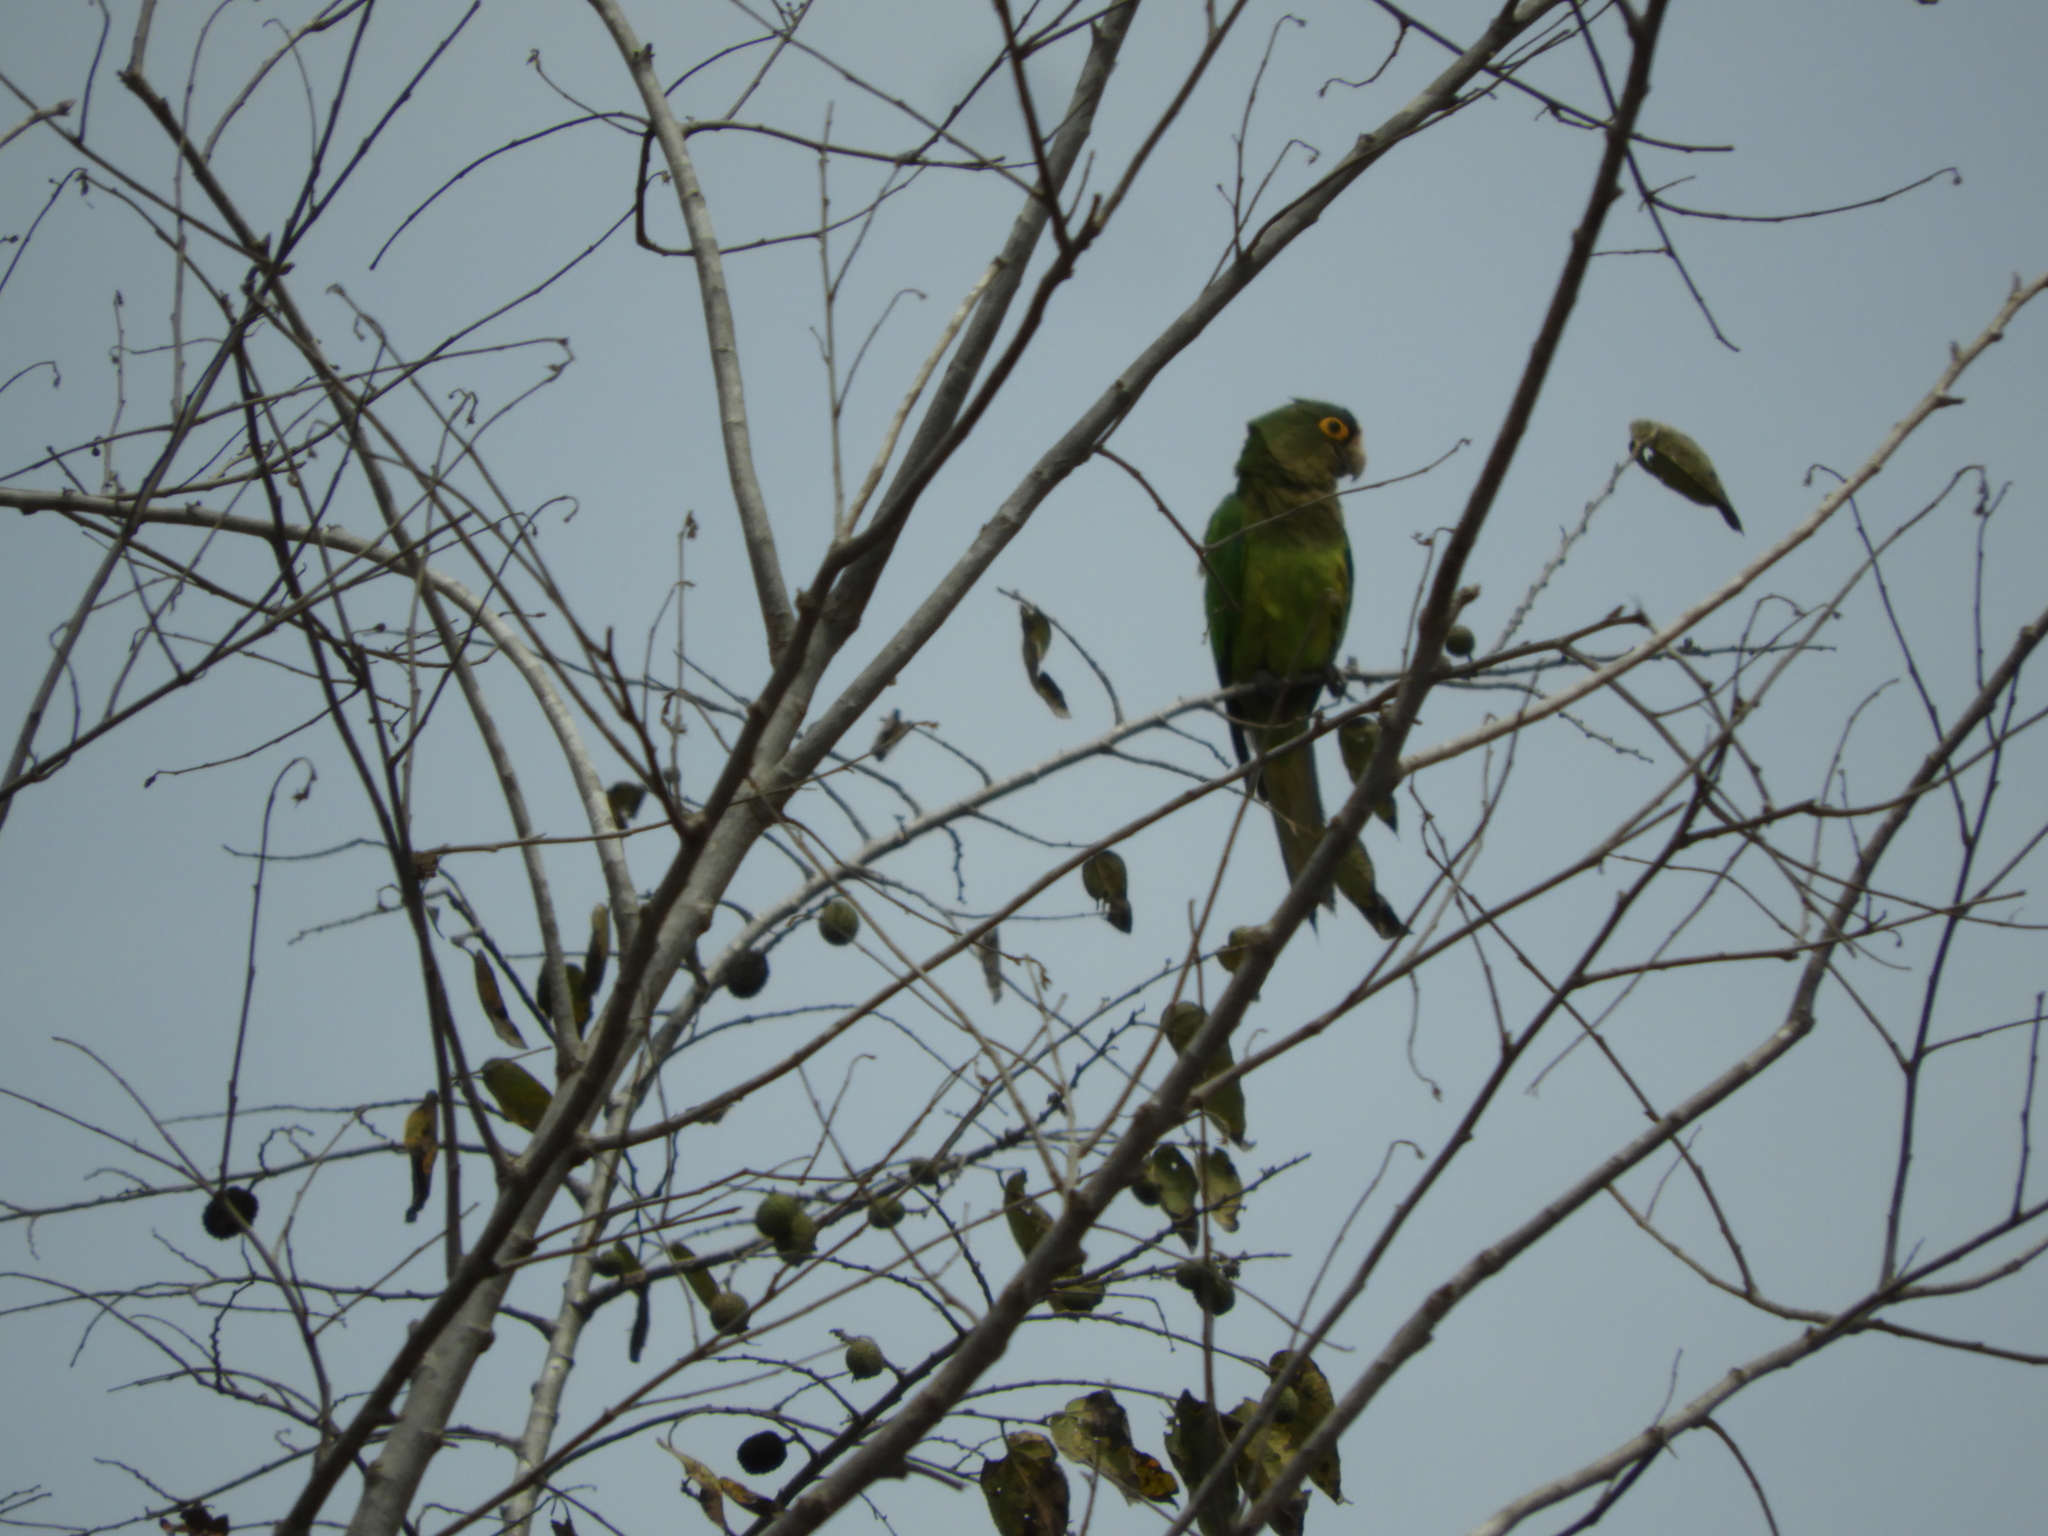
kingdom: Animalia
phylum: Chordata
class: Aves
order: Psittaciformes
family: Psittacidae
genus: Aratinga
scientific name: Aratinga canicularis
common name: Orange-fronted parakeet
